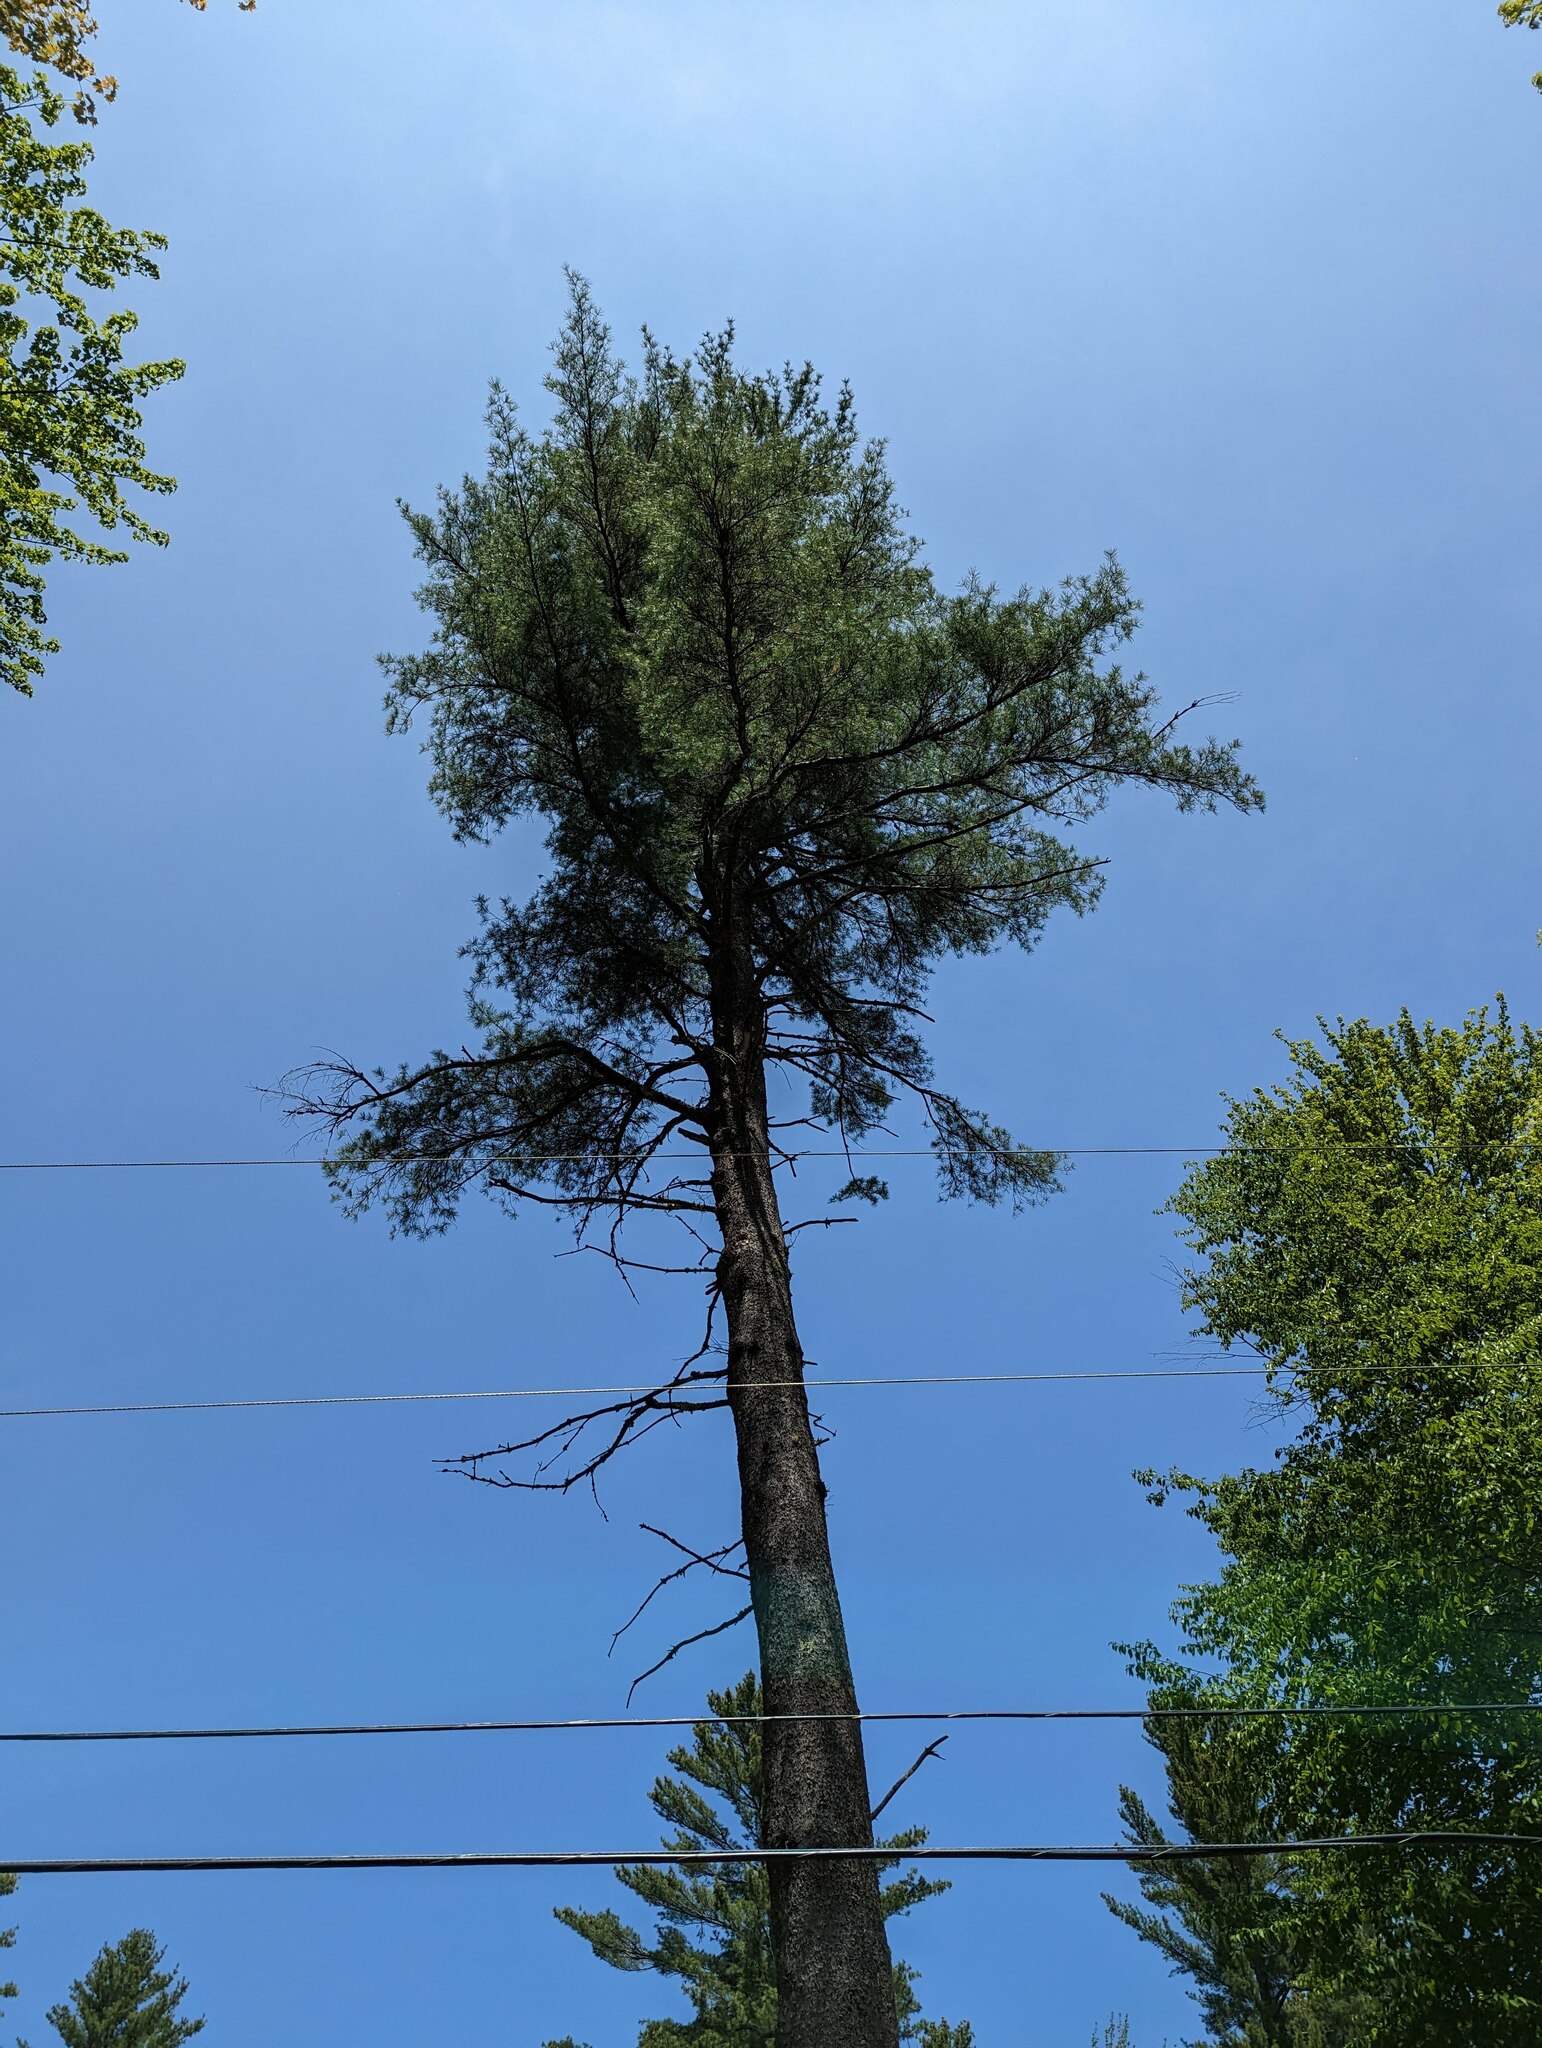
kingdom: Plantae
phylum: Tracheophyta
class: Pinopsida
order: Pinales
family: Pinaceae
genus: Pinus
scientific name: Pinus strobus
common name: Weymouth pine
